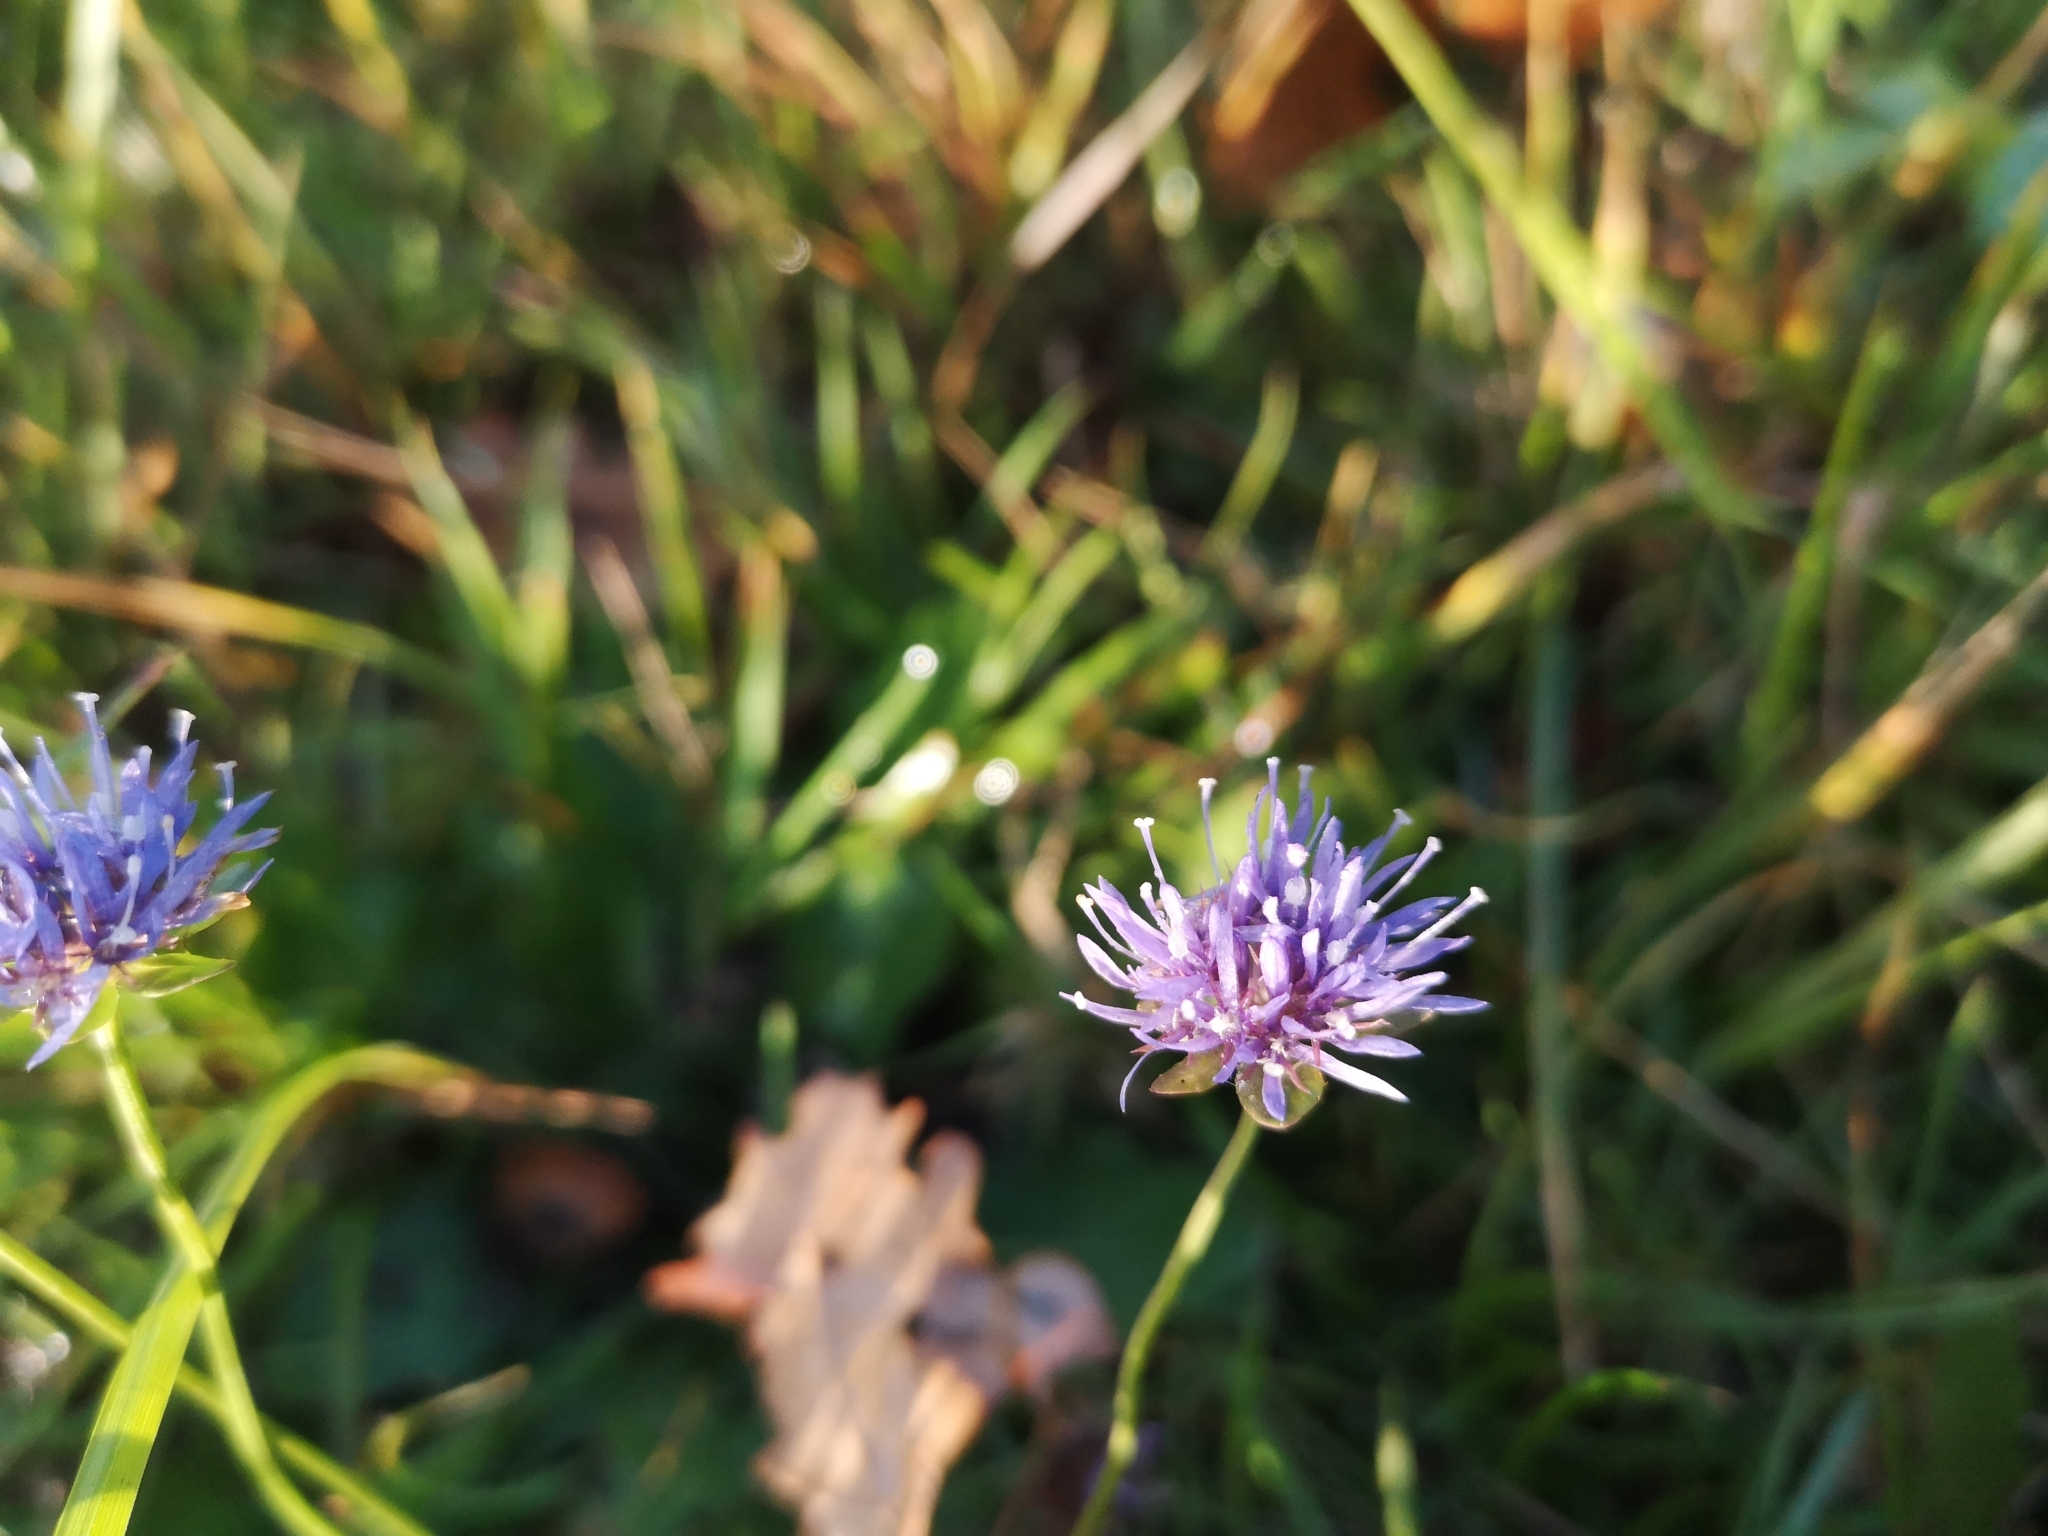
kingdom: Plantae
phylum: Tracheophyta
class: Magnoliopsida
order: Asterales
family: Campanulaceae
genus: Jasione
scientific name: Jasione montana
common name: Sheep's-bit
